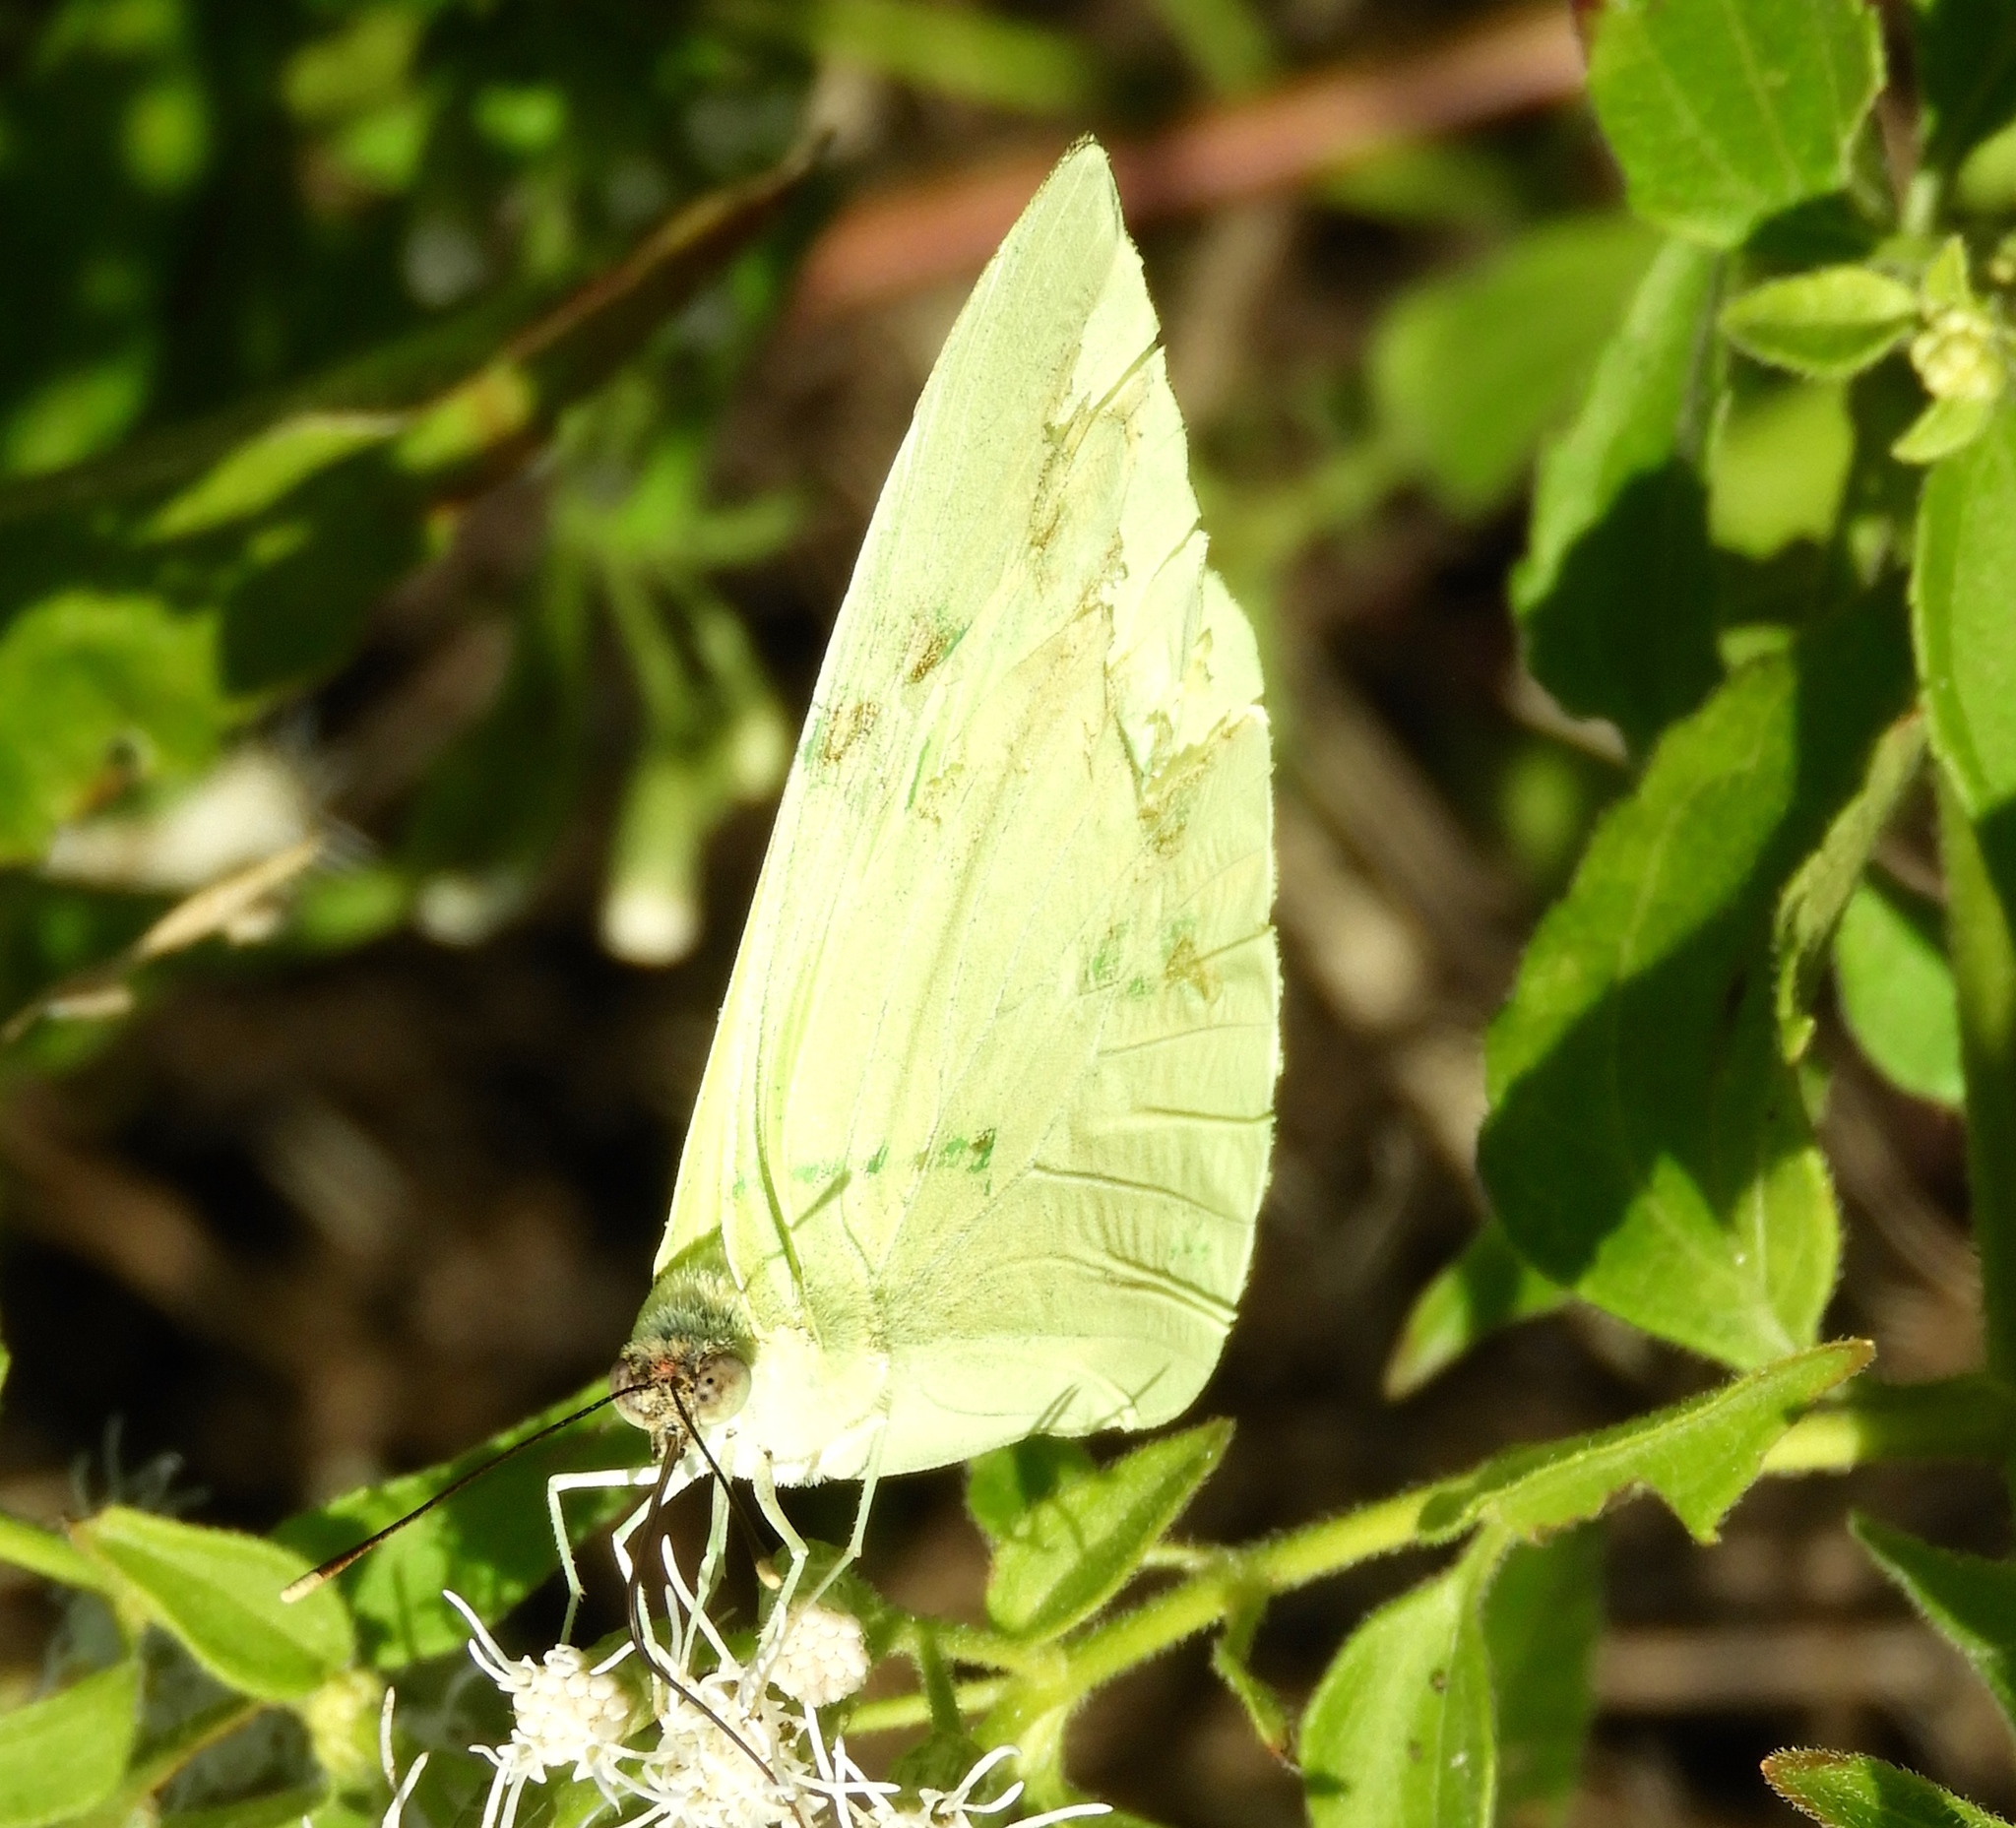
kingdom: Animalia
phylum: Arthropoda
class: Insecta
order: Lepidoptera
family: Pieridae
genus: Aphrissa
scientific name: Aphrissa statira
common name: Statira sulphur
